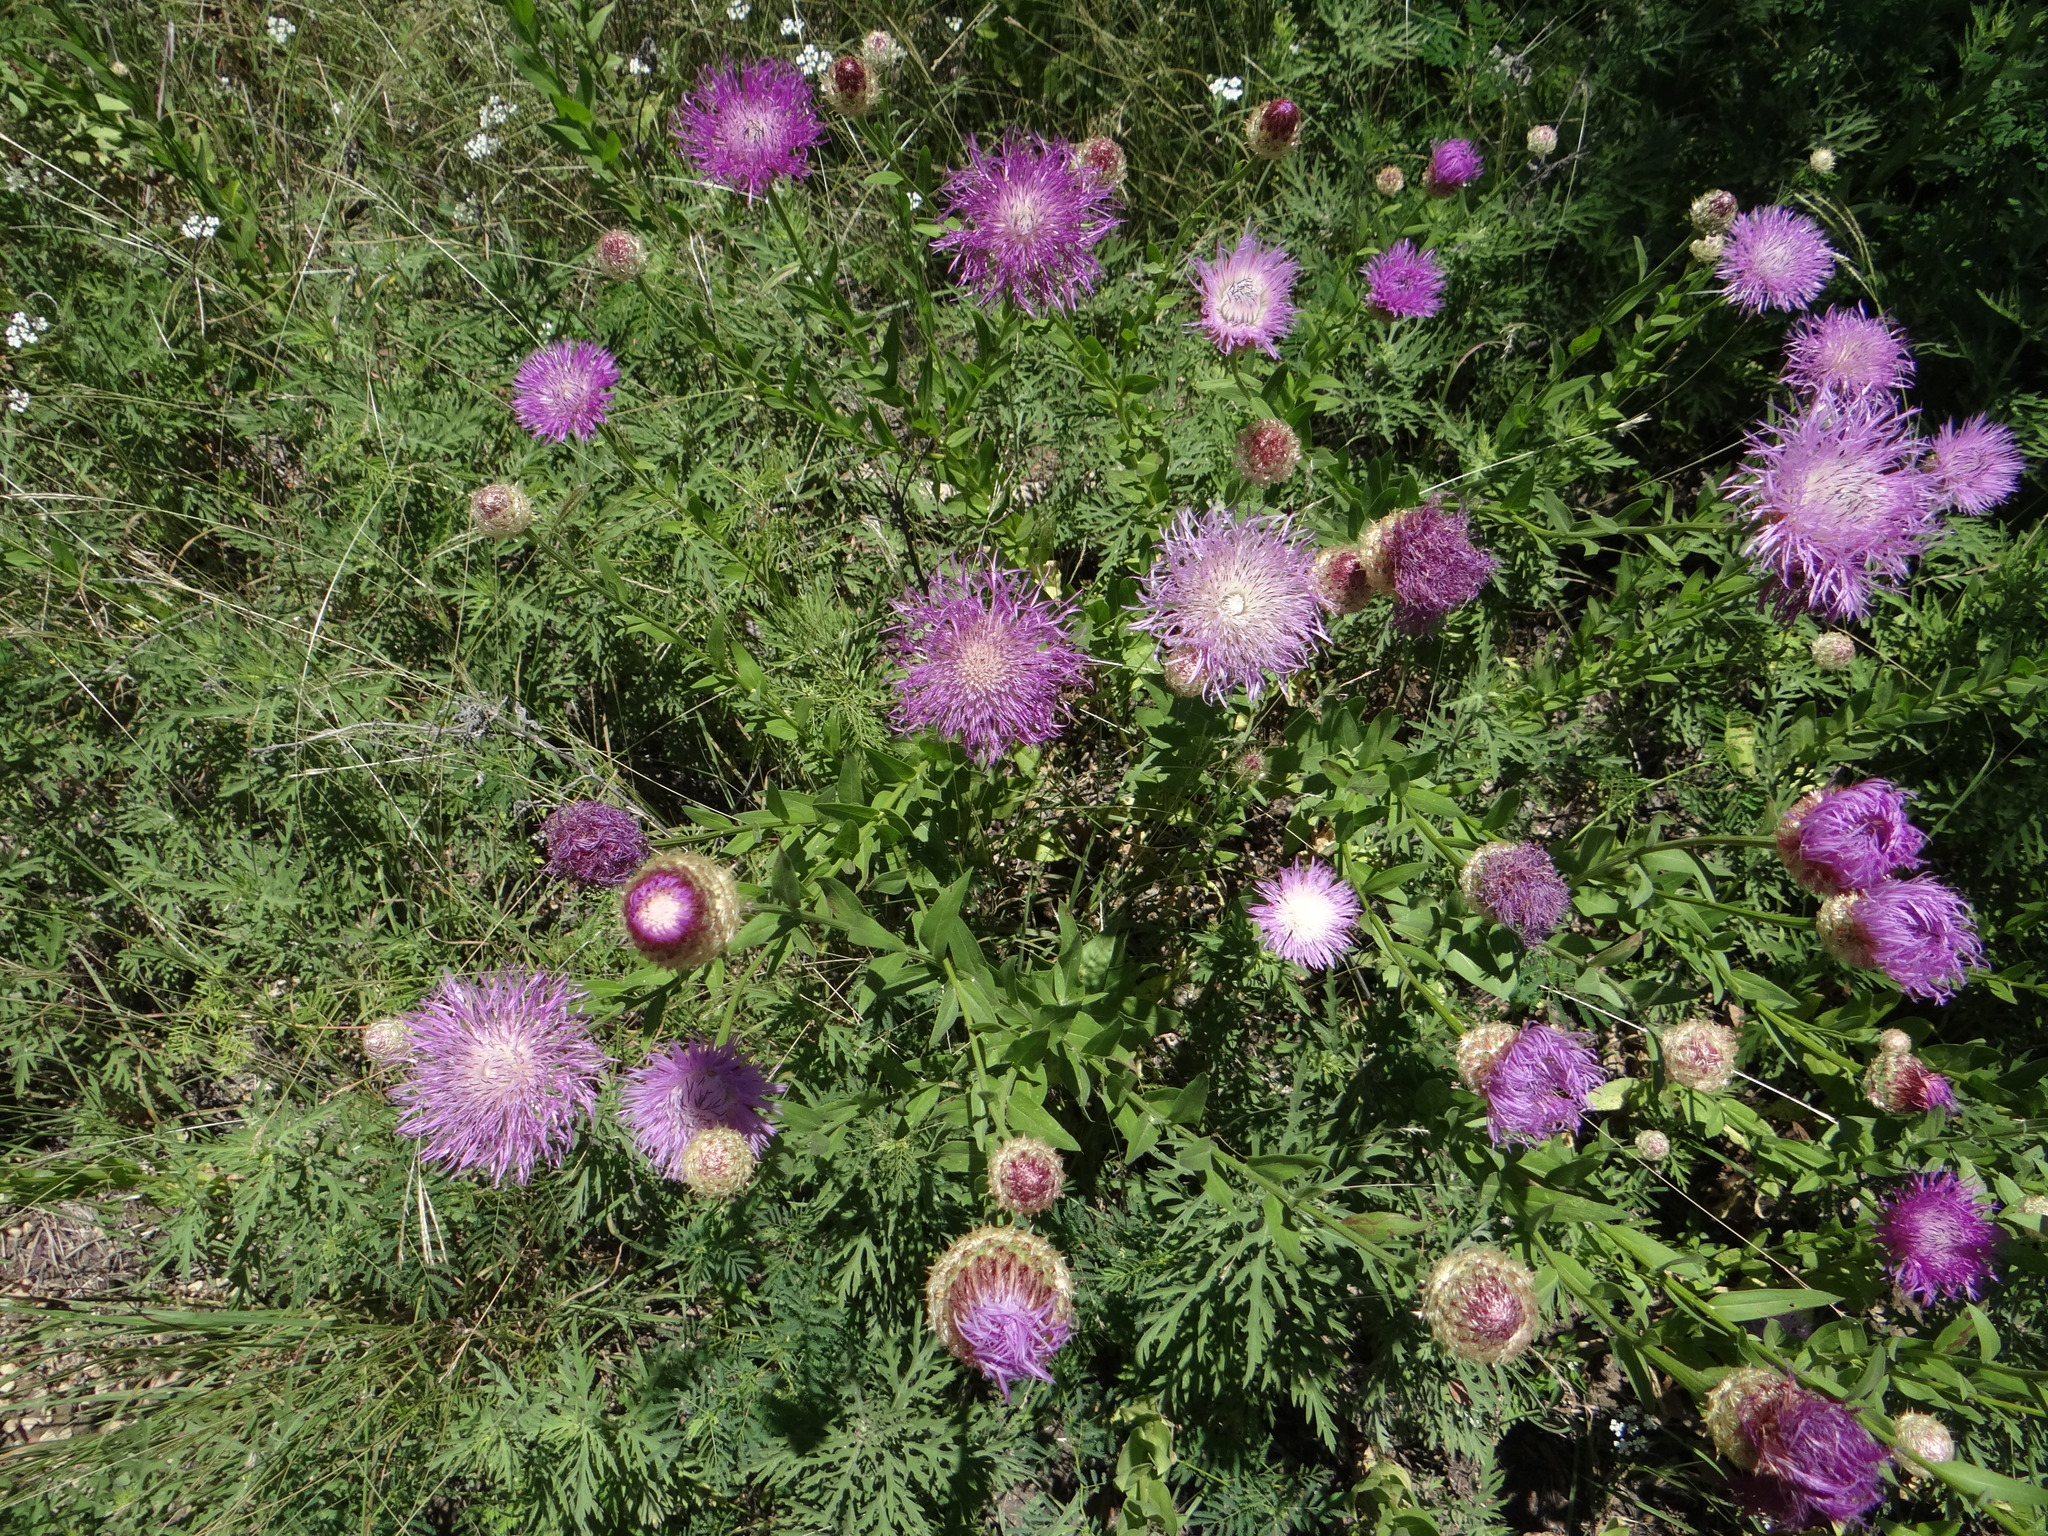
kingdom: Plantae
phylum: Tracheophyta
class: Magnoliopsida
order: Asterales
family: Asteraceae
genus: Plectocephalus
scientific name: Plectocephalus americanus
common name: American basket-flower
